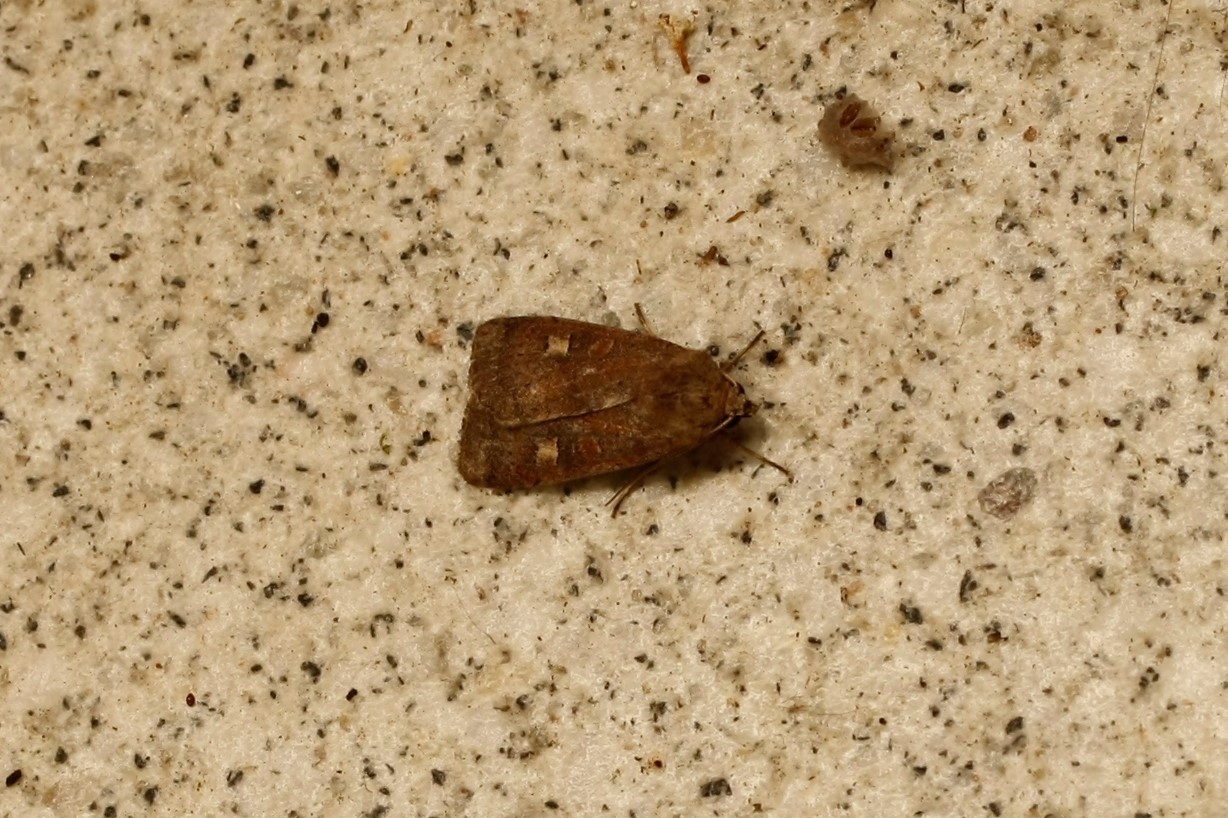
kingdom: Animalia
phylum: Arthropoda
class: Insecta
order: Lepidoptera
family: Noctuidae
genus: Xestia
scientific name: Xestia xanthographa
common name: Square-spot rustic
